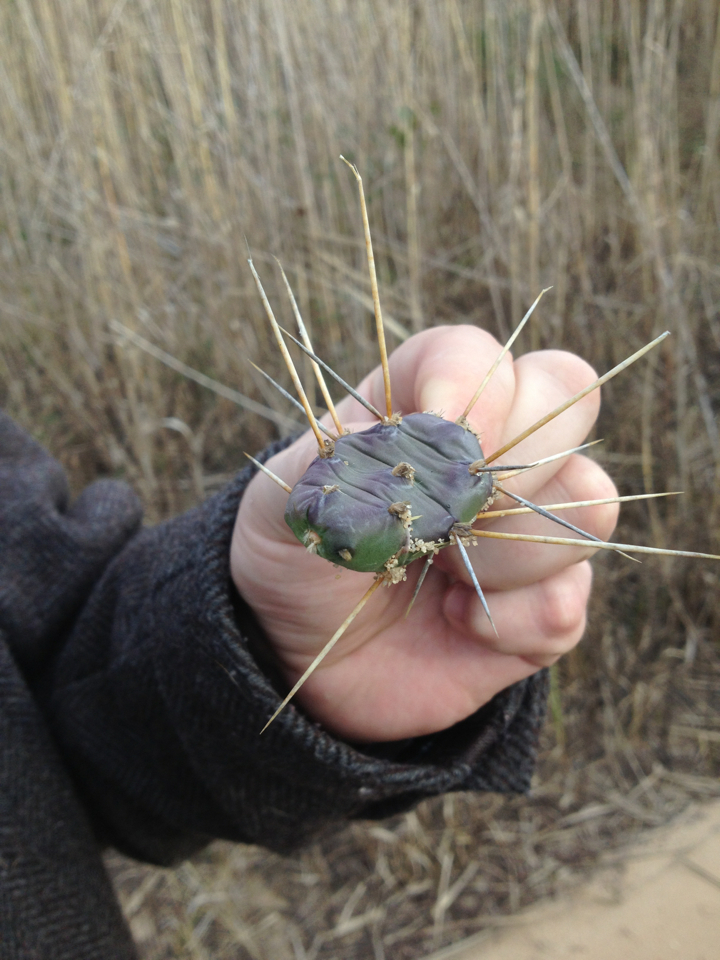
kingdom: Plantae
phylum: Tracheophyta
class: Magnoliopsida
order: Caryophyllales
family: Cactaceae
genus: Opuntia
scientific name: Opuntia drummondii
